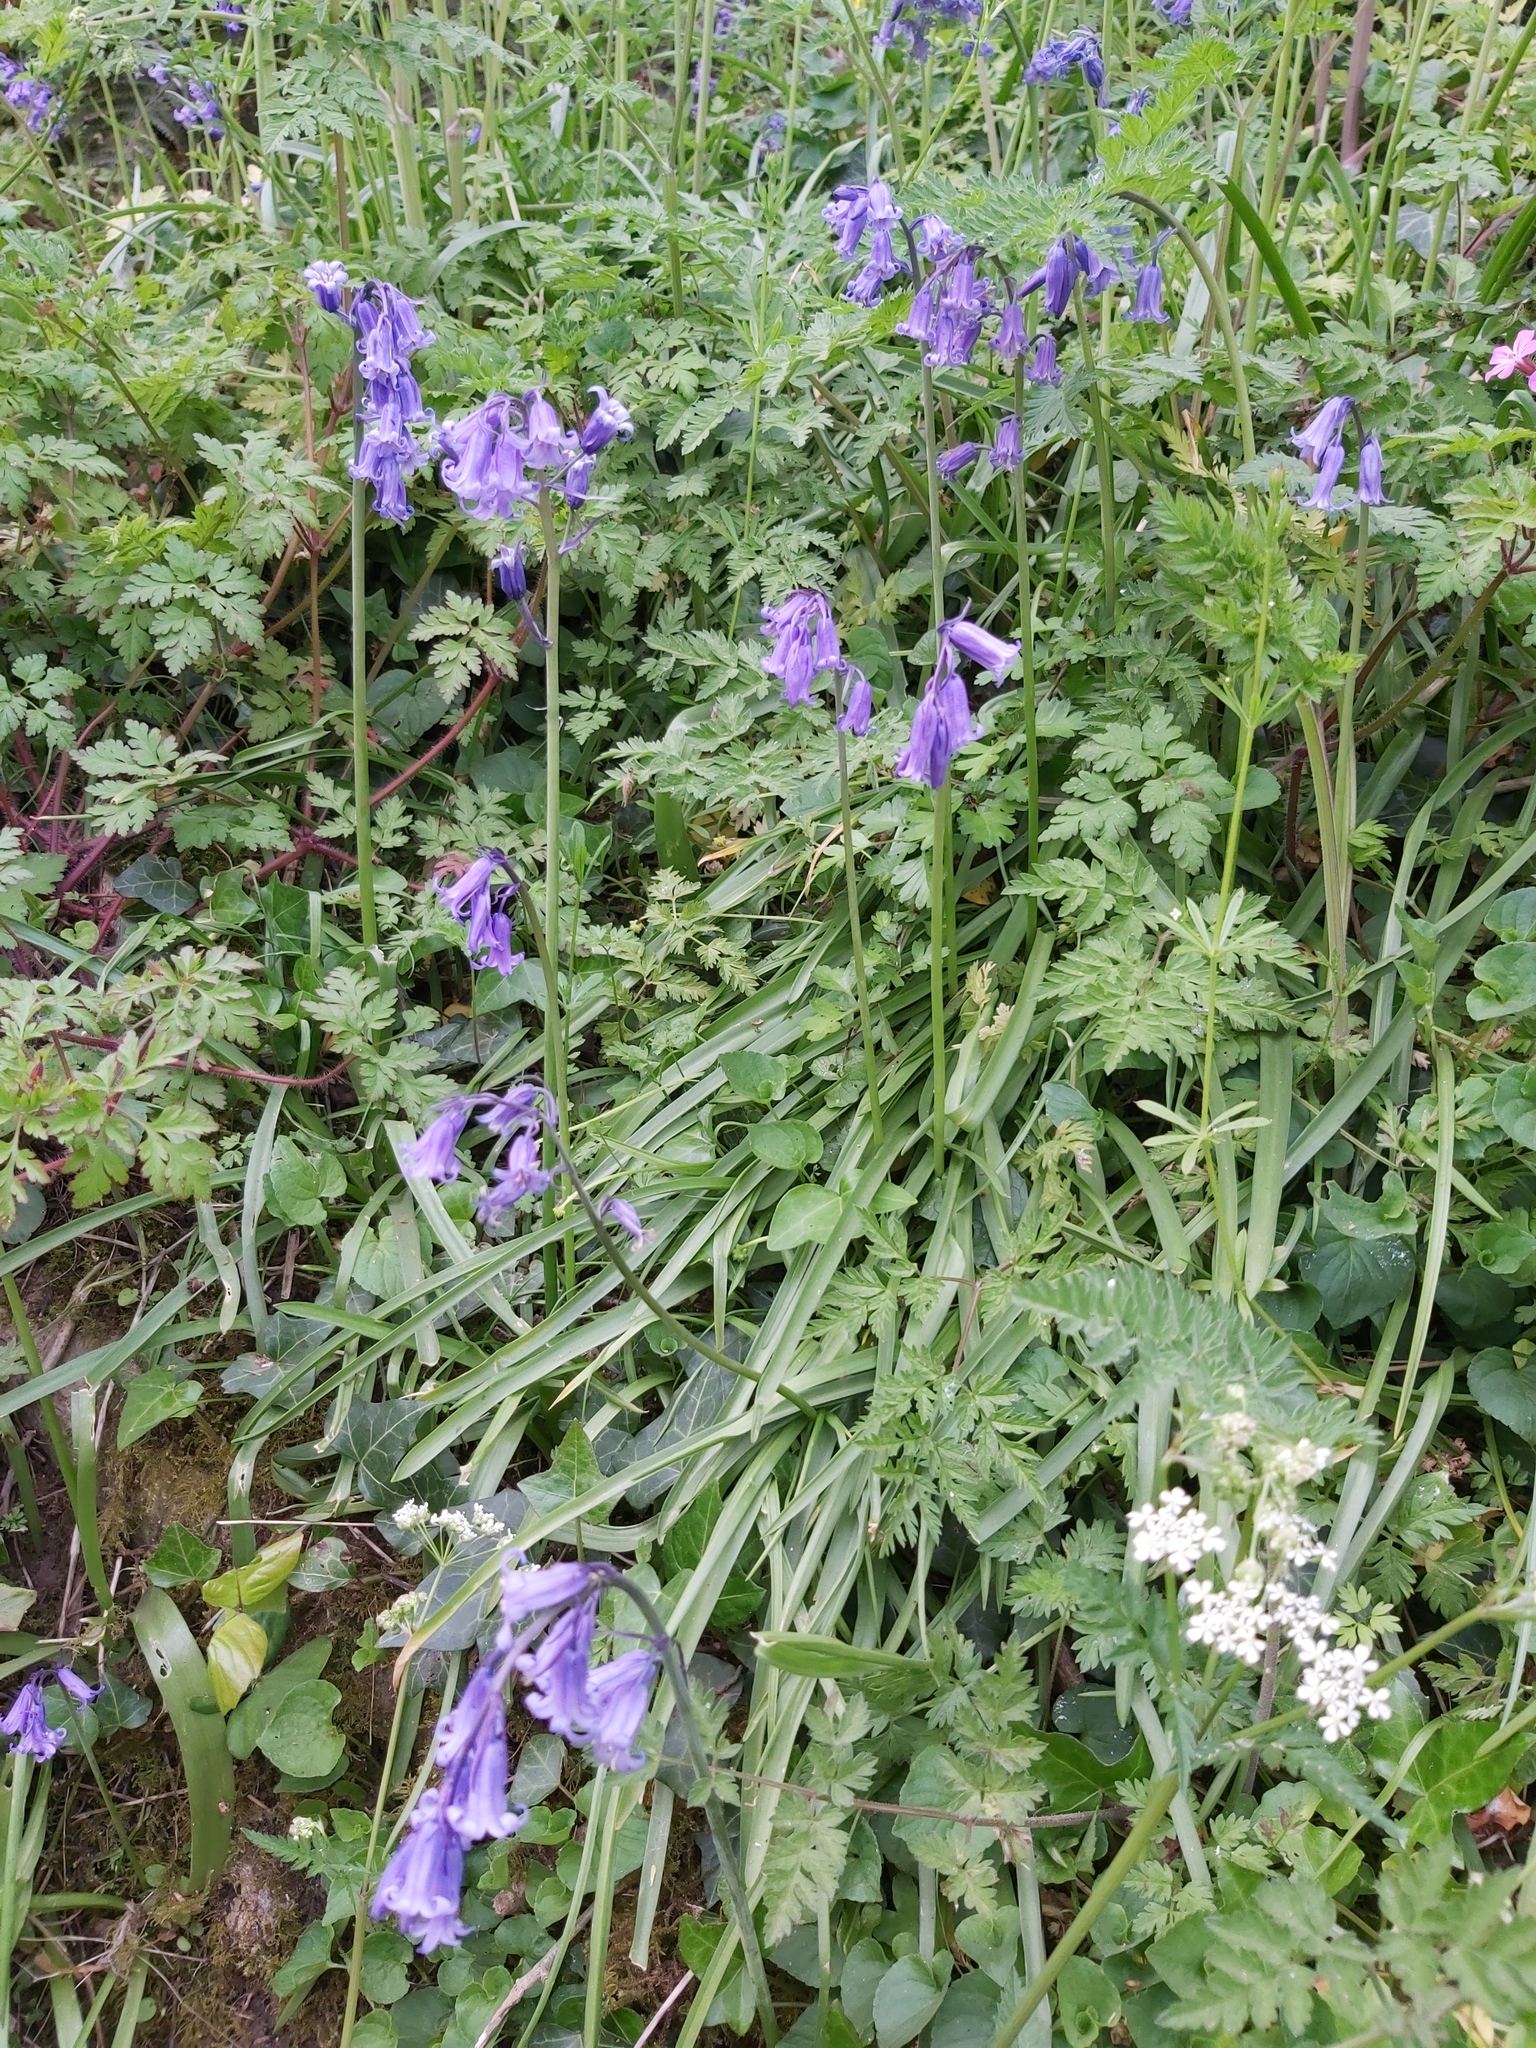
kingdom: Plantae
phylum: Tracheophyta
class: Liliopsida
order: Asparagales
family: Asparagaceae
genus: Hyacinthoides
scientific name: Hyacinthoides non-scripta
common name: Bluebell
